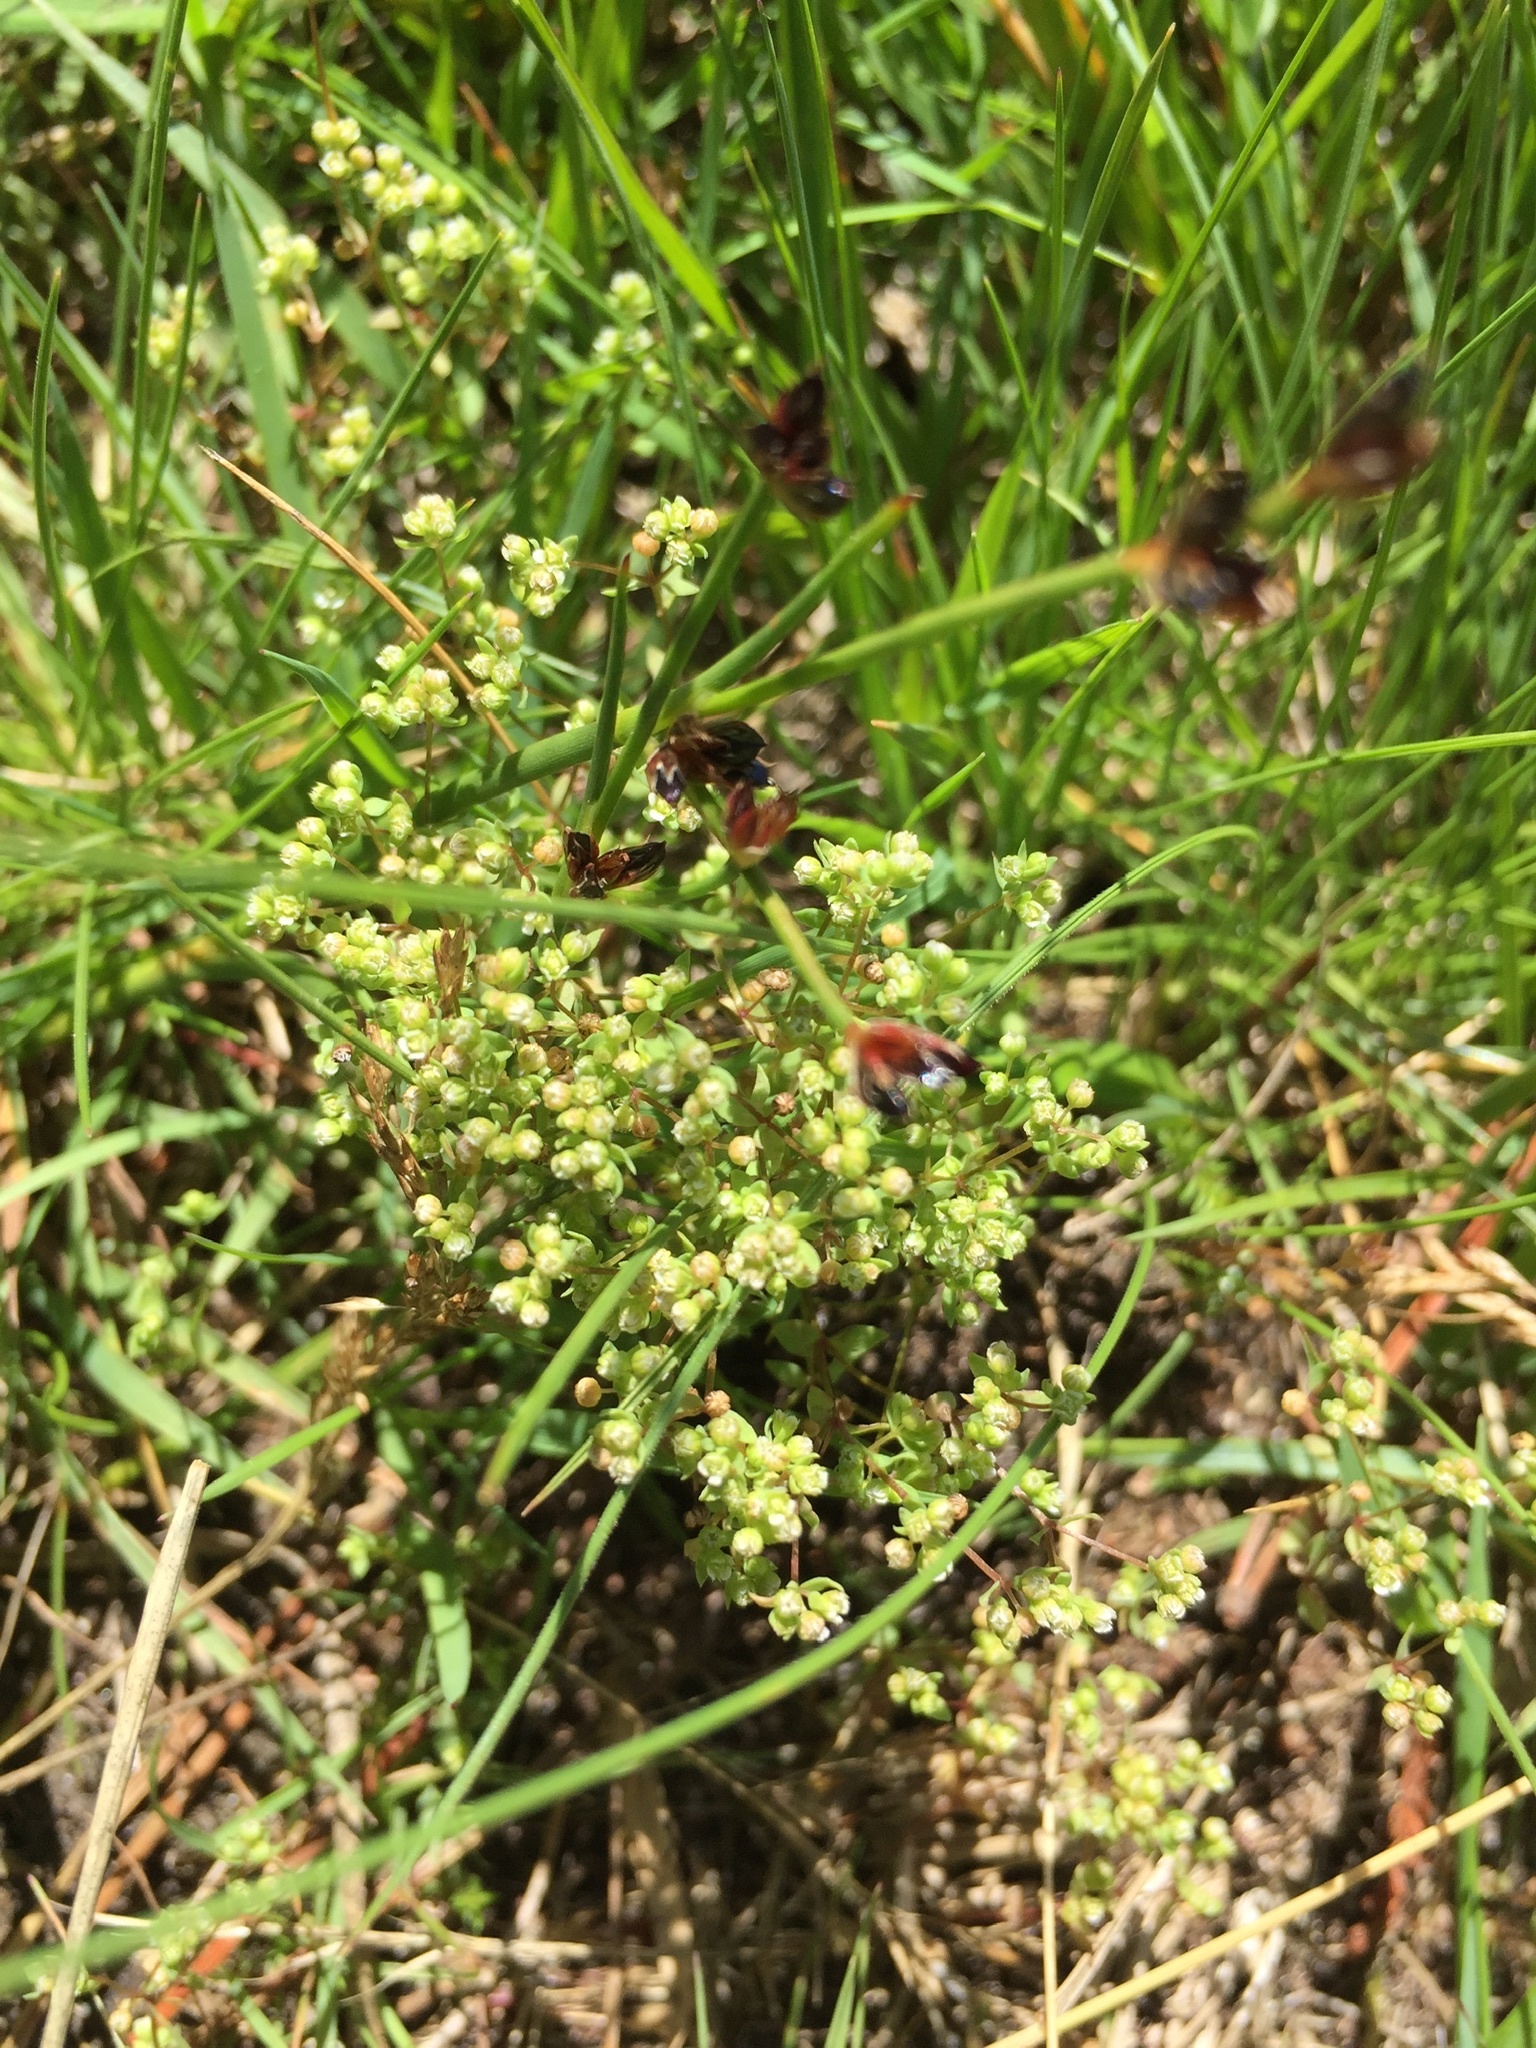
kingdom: Plantae
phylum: Tracheophyta
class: Magnoliopsida
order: Malpighiales
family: Linaceae
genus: Radiola
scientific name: Radiola linoides
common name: Allseed
